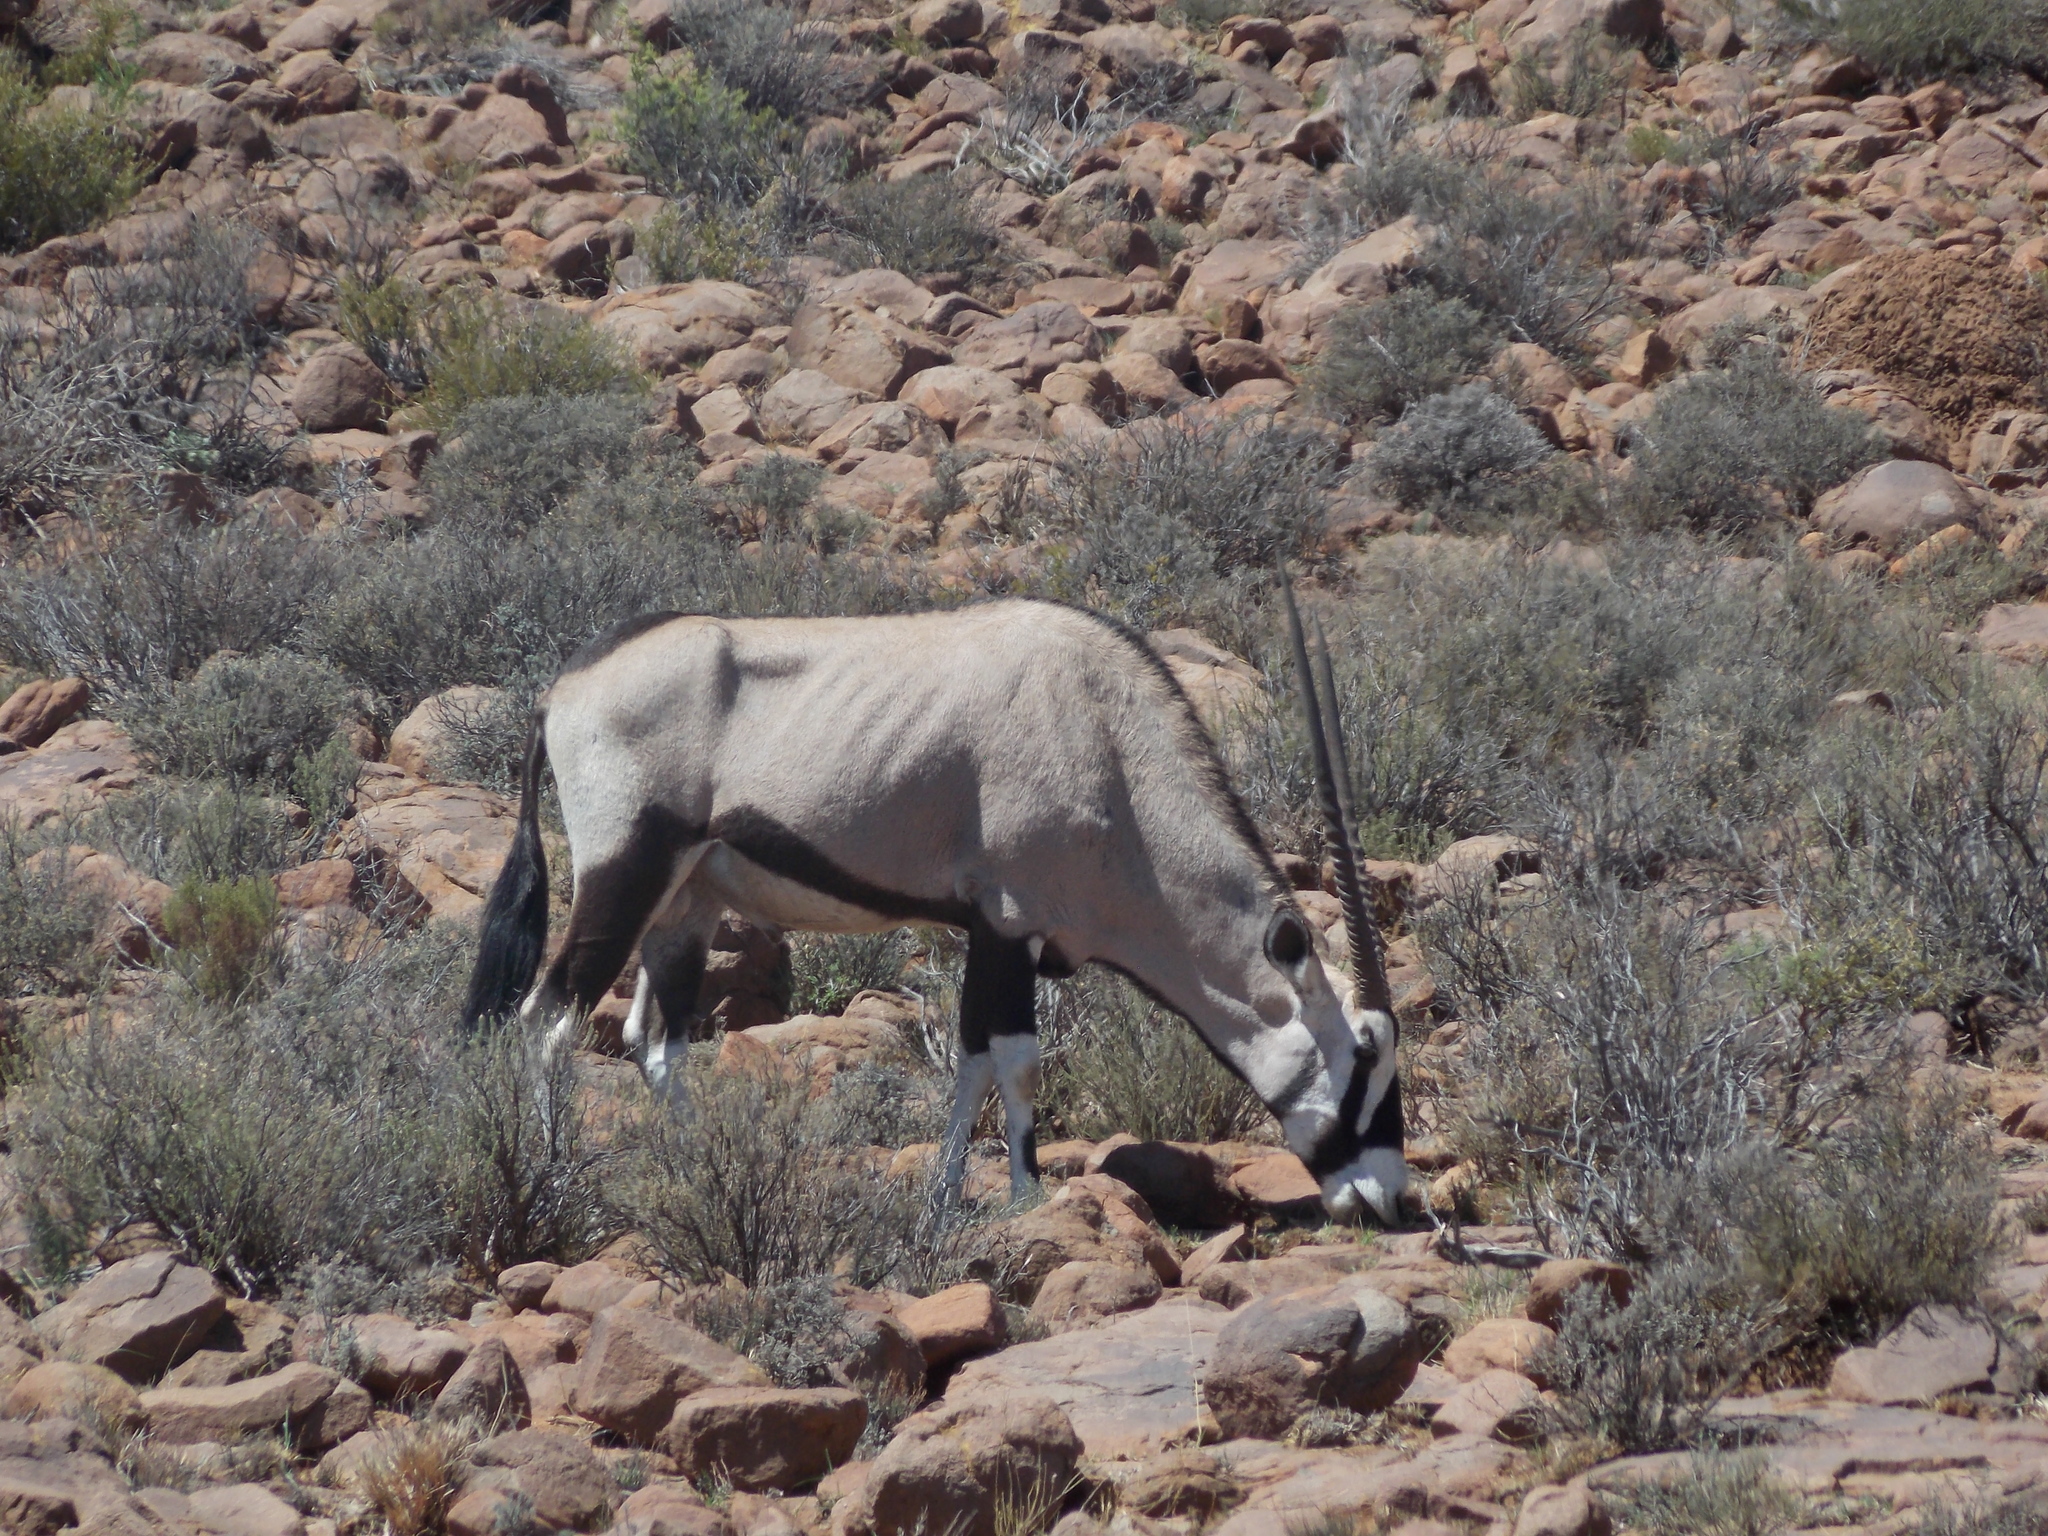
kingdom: Animalia
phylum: Chordata
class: Mammalia
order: Artiodactyla
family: Bovidae
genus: Oryx
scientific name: Oryx gazella
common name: Gemsbok
